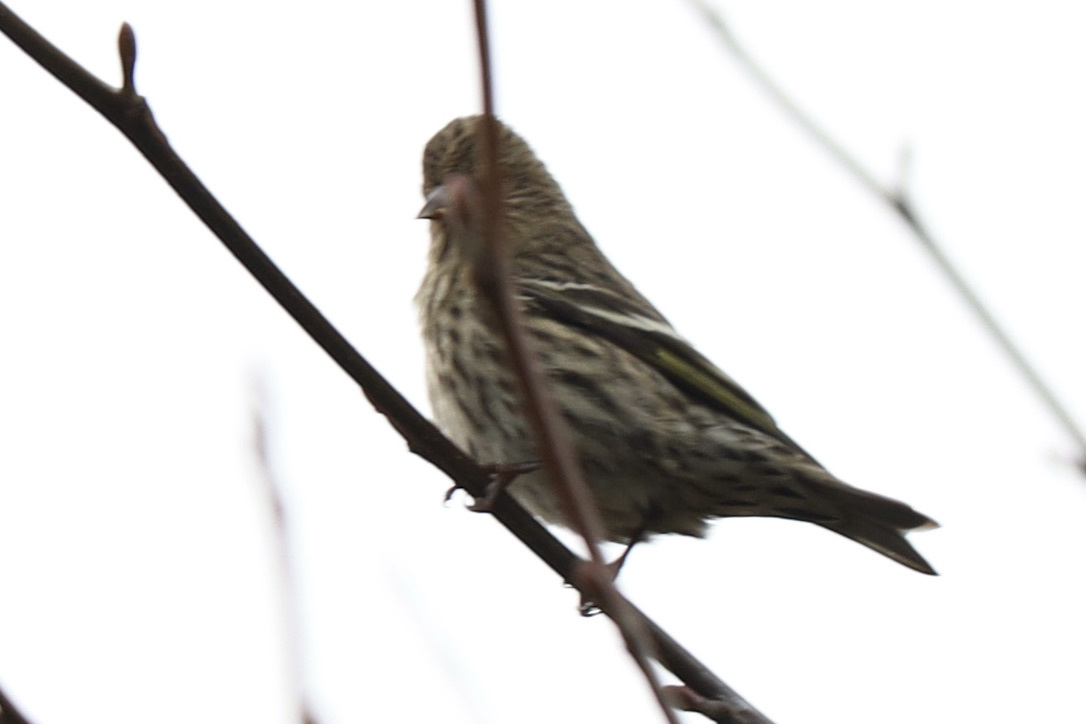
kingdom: Animalia
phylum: Chordata
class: Aves
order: Passeriformes
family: Fringillidae
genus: Spinus
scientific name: Spinus pinus
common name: Pine siskin
